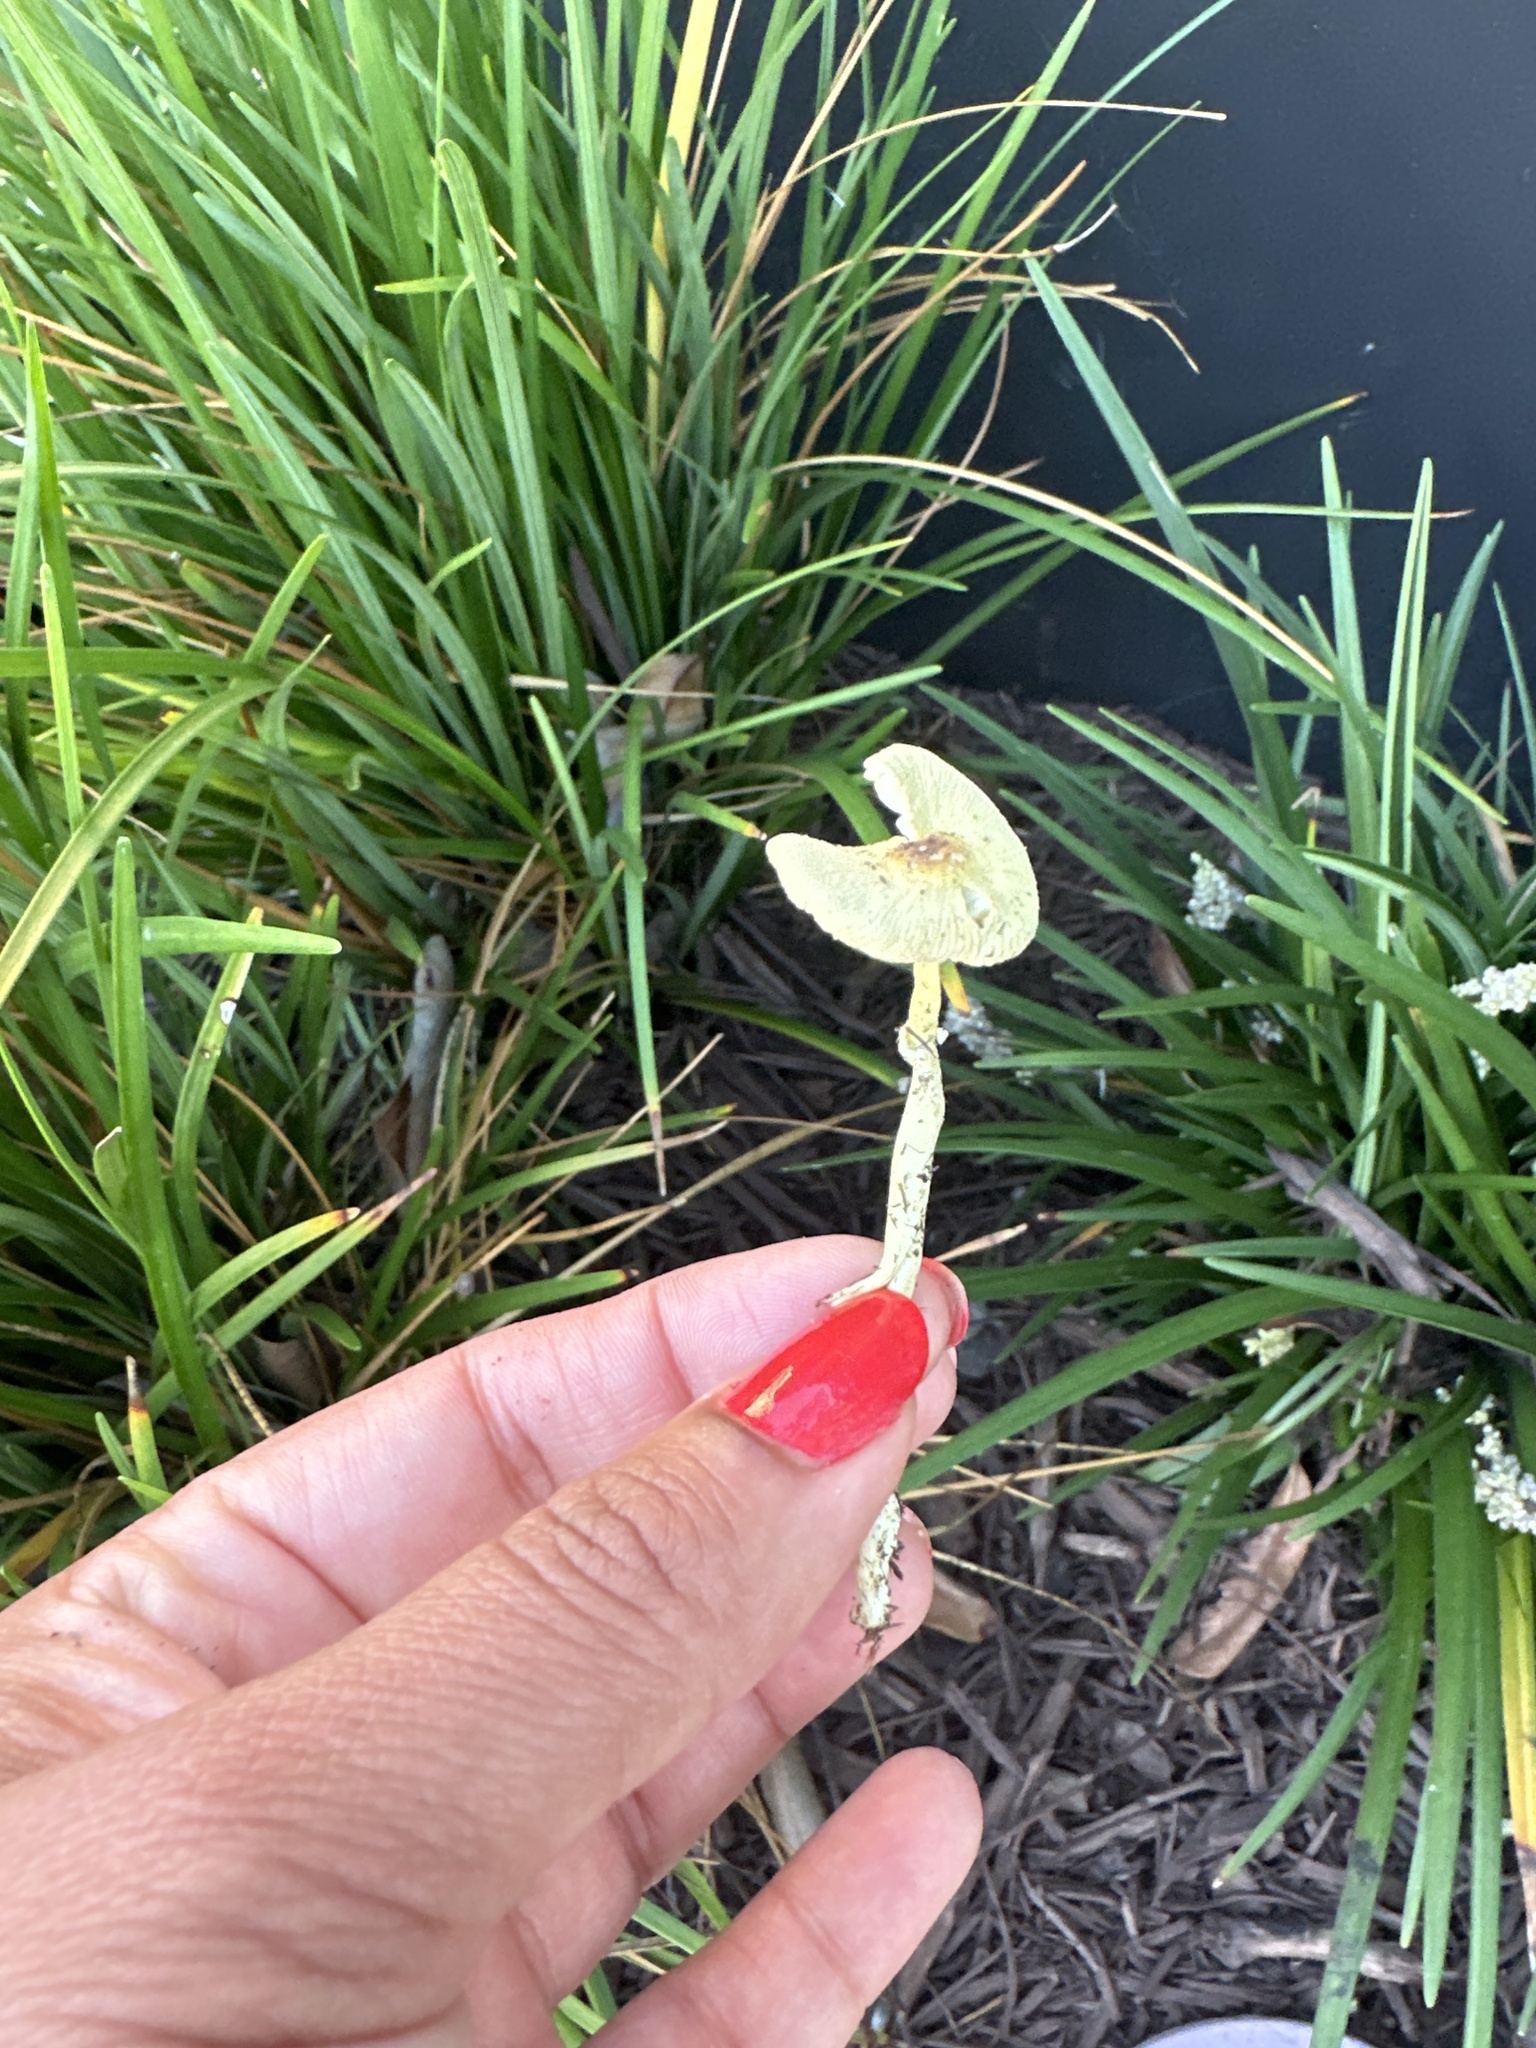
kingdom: Fungi
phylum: Basidiomycota
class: Agaricomycetes
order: Agaricales
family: Agaricaceae
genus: Leucocoprinus
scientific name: Leucocoprinus birnbaumii
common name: Plantpot dapperling
